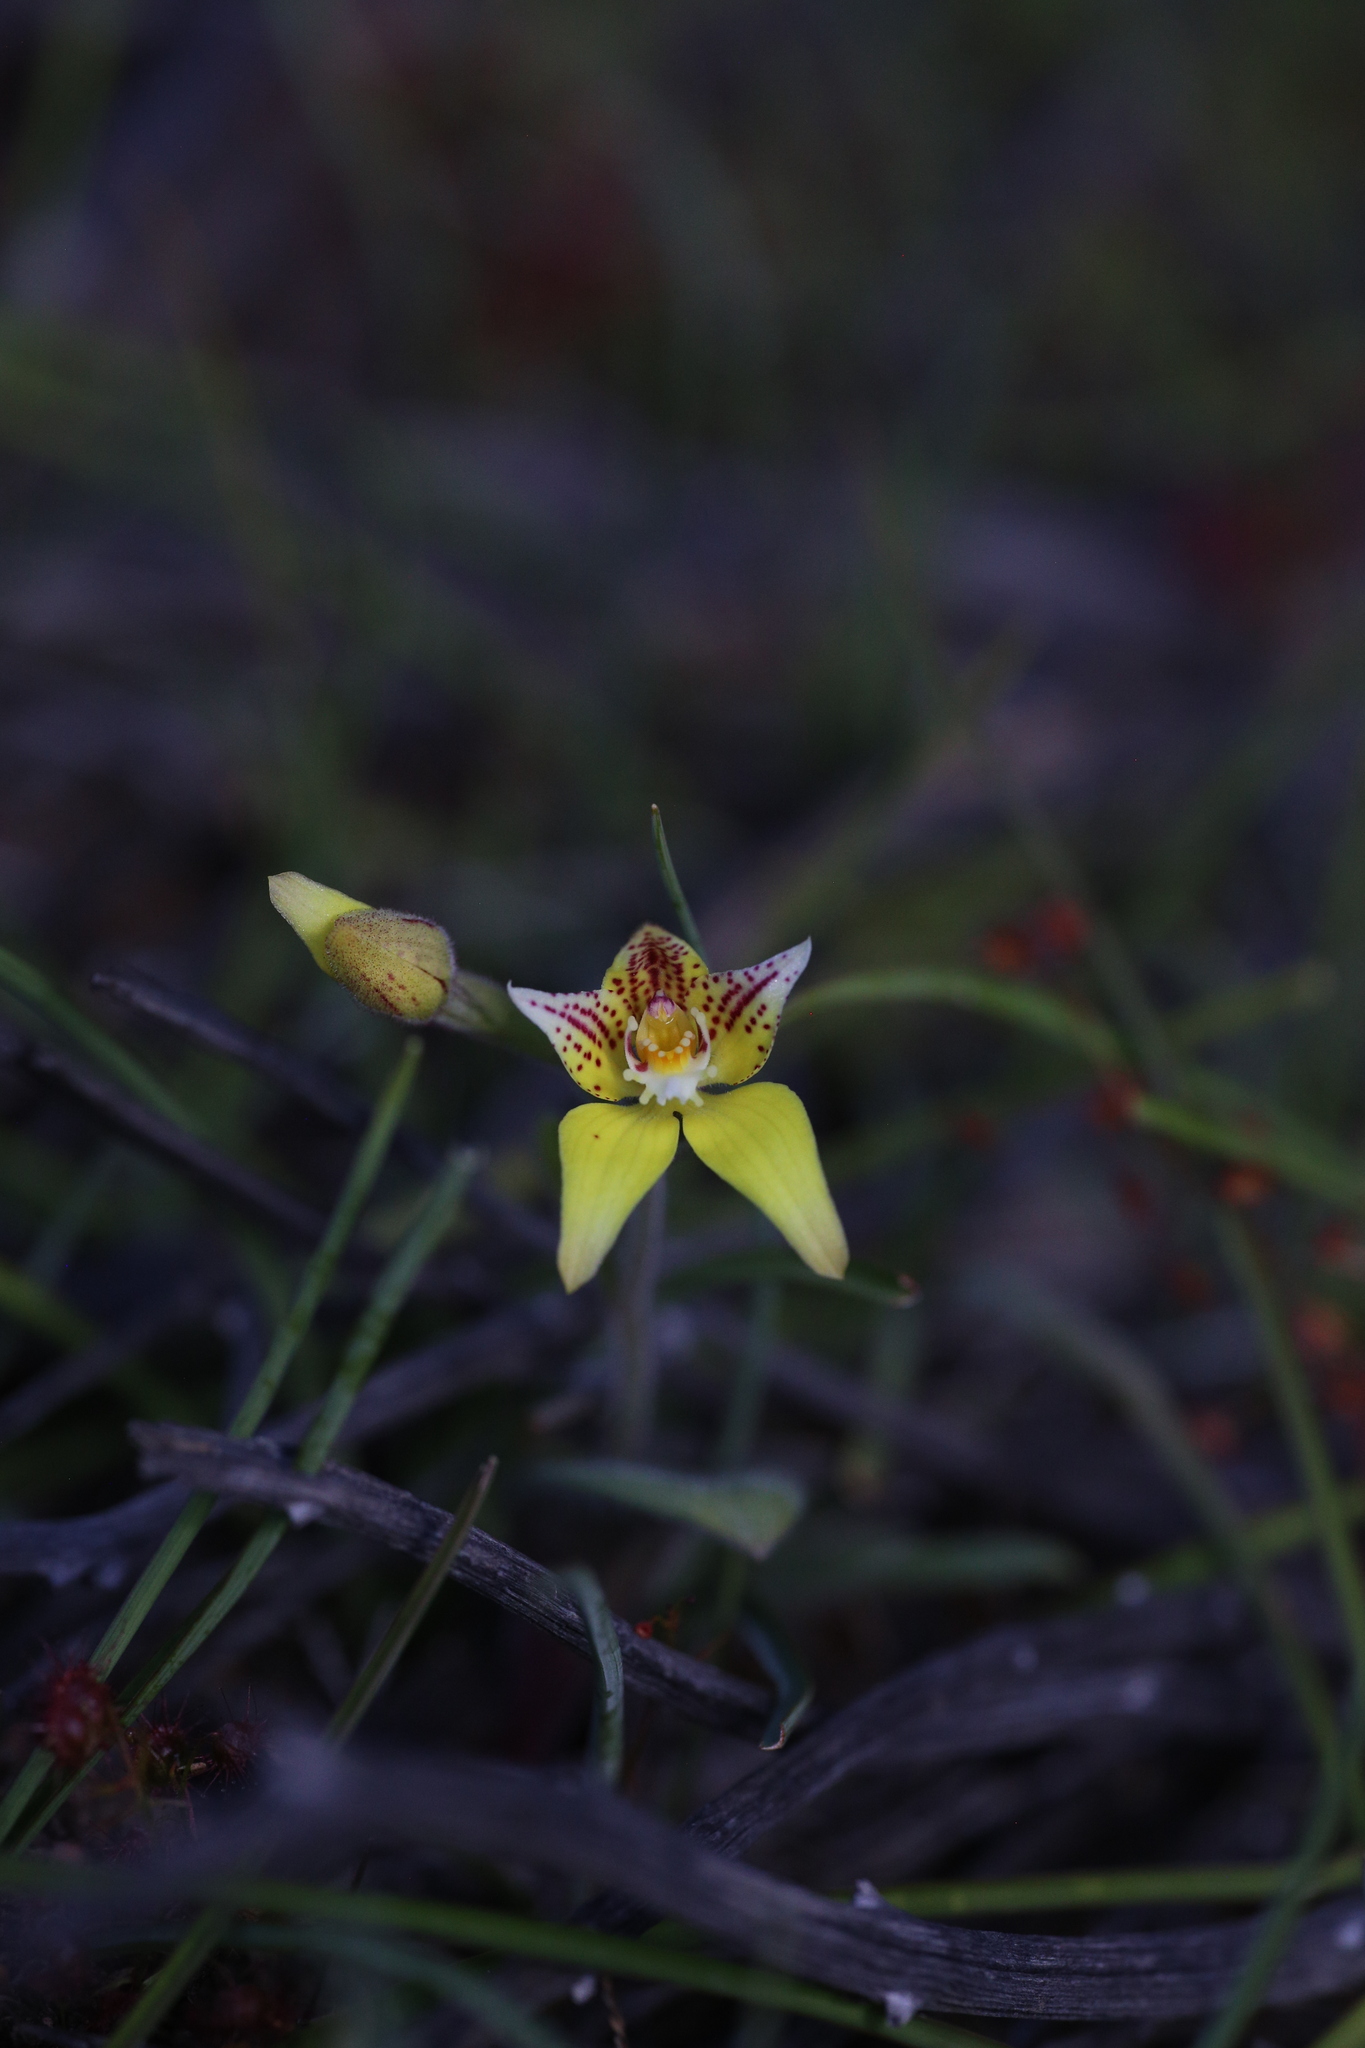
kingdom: Plantae
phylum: Tracheophyta
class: Liliopsida
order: Asparagales
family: Orchidaceae
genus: Caladenia
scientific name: Caladenia flava
